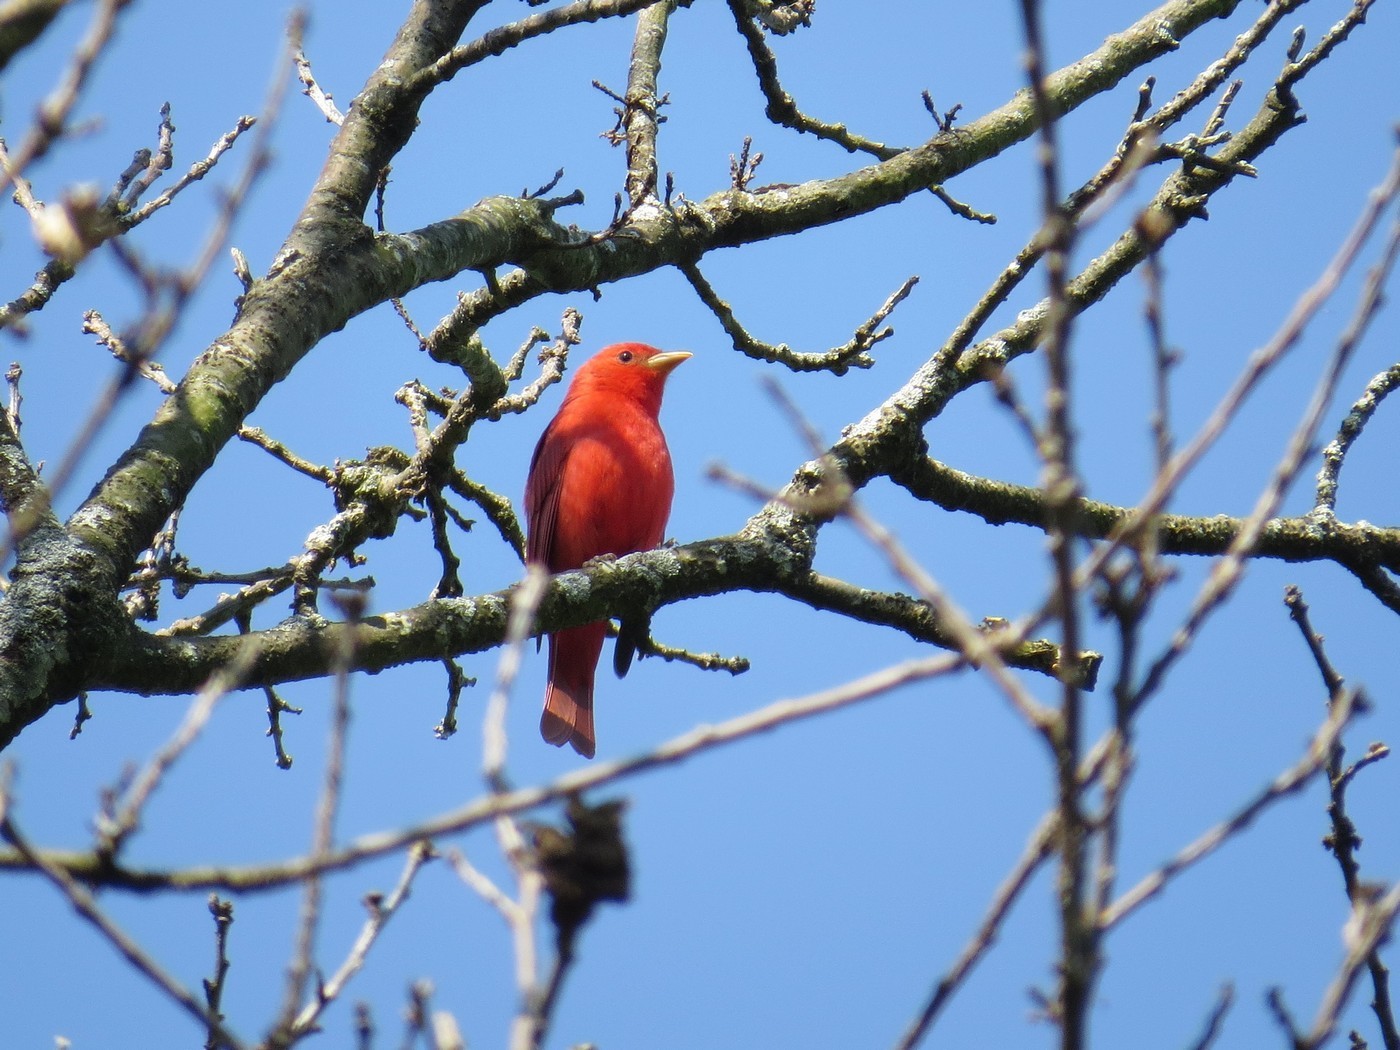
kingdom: Animalia
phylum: Chordata
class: Aves
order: Passeriformes
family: Cardinalidae
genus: Piranga
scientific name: Piranga rubra
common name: Summer tanager
